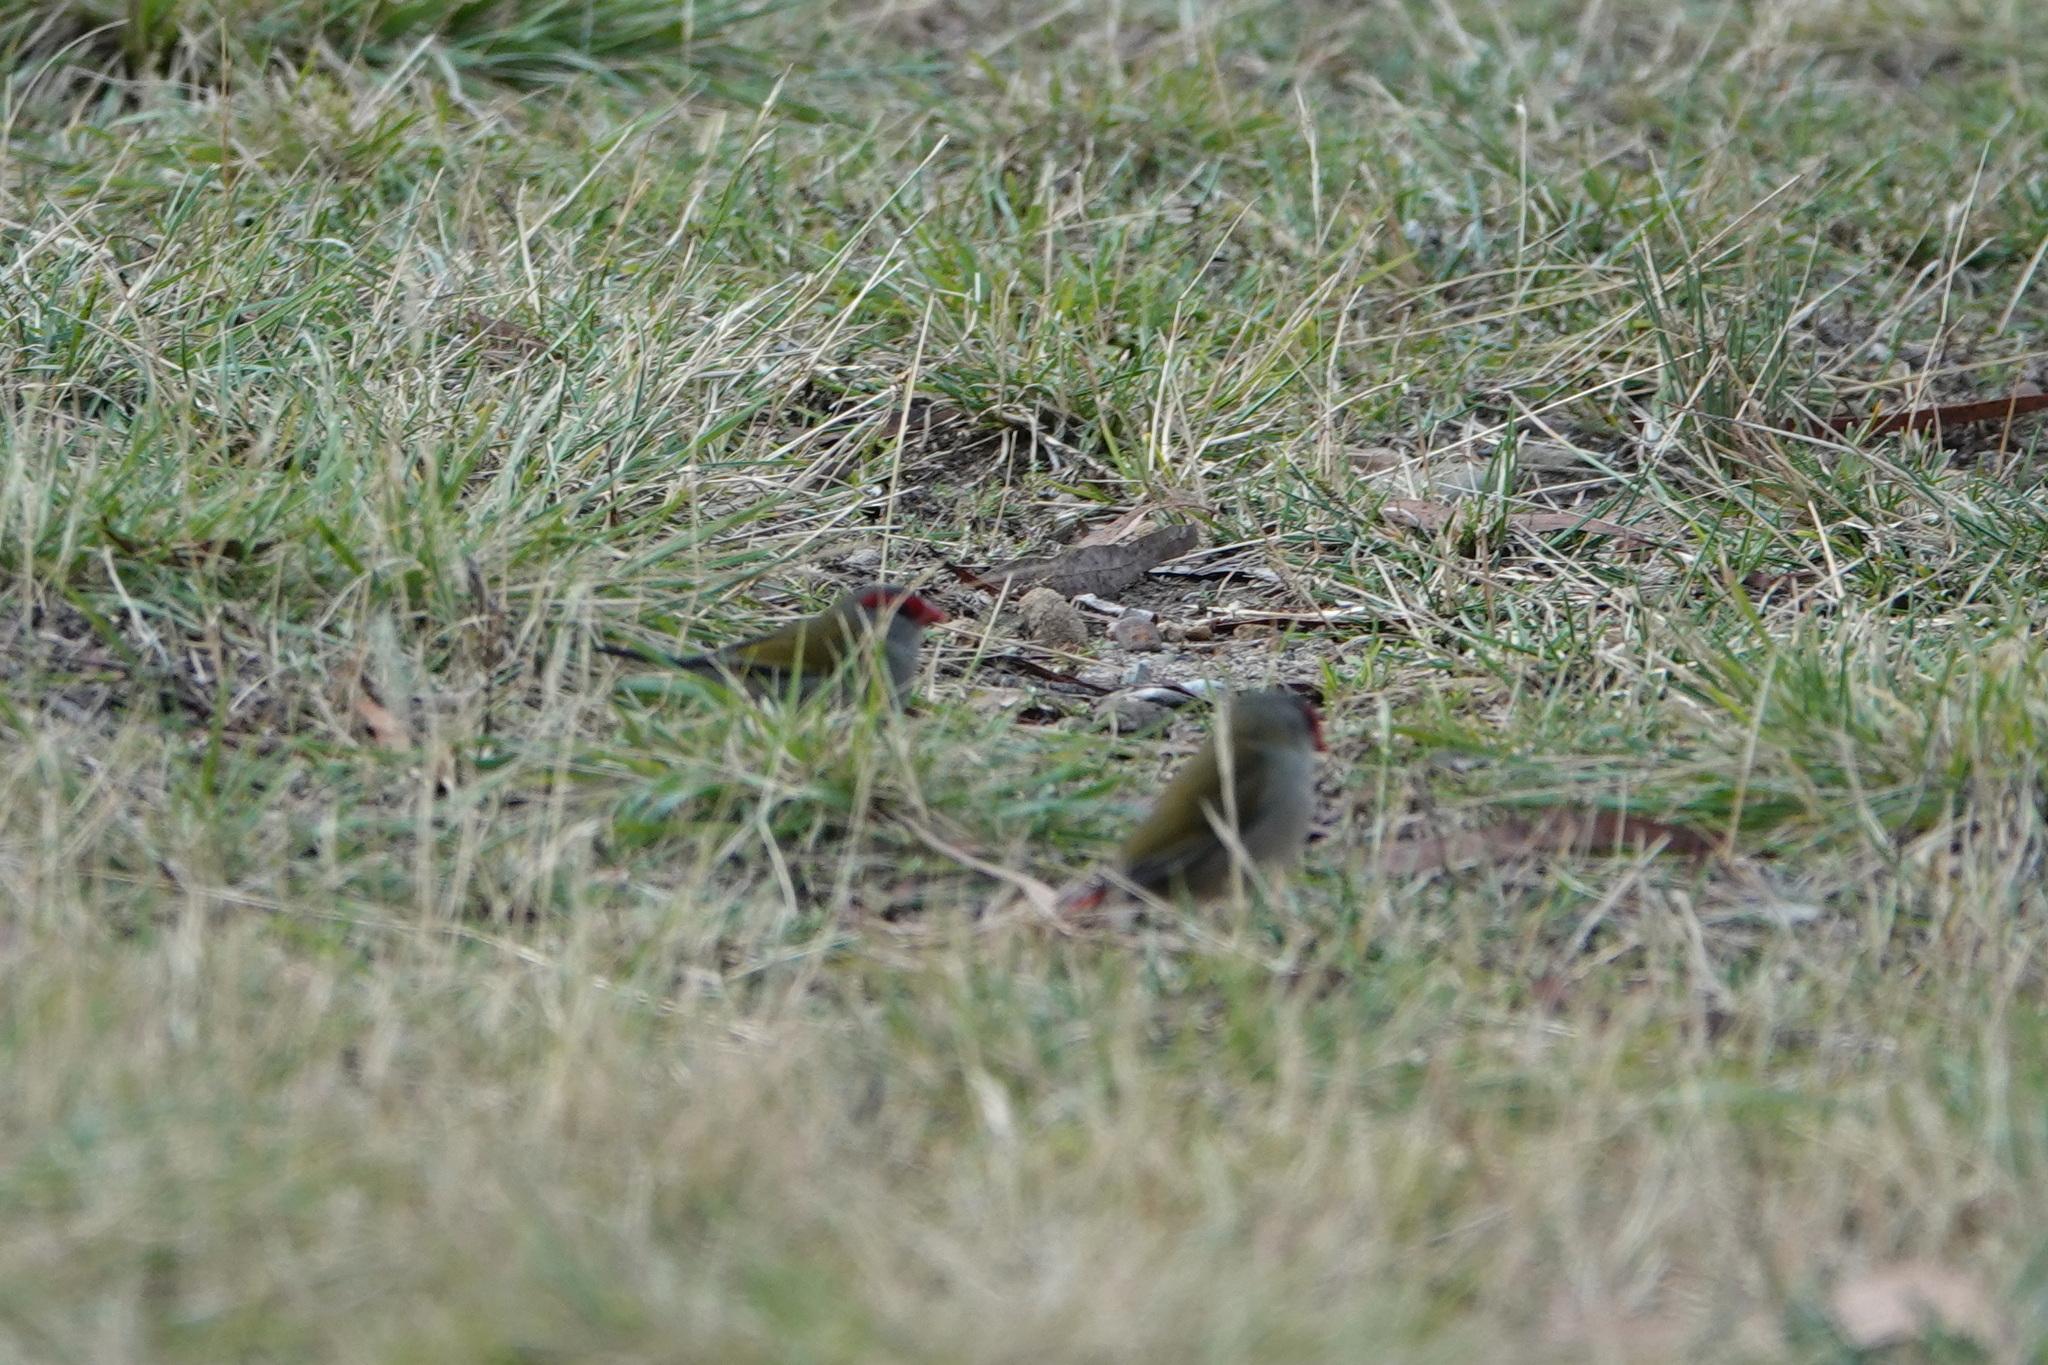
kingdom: Animalia
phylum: Chordata
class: Aves
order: Passeriformes
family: Estrildidae
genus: Neochmia
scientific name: Neochmia temporalis
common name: Red-browed finch
